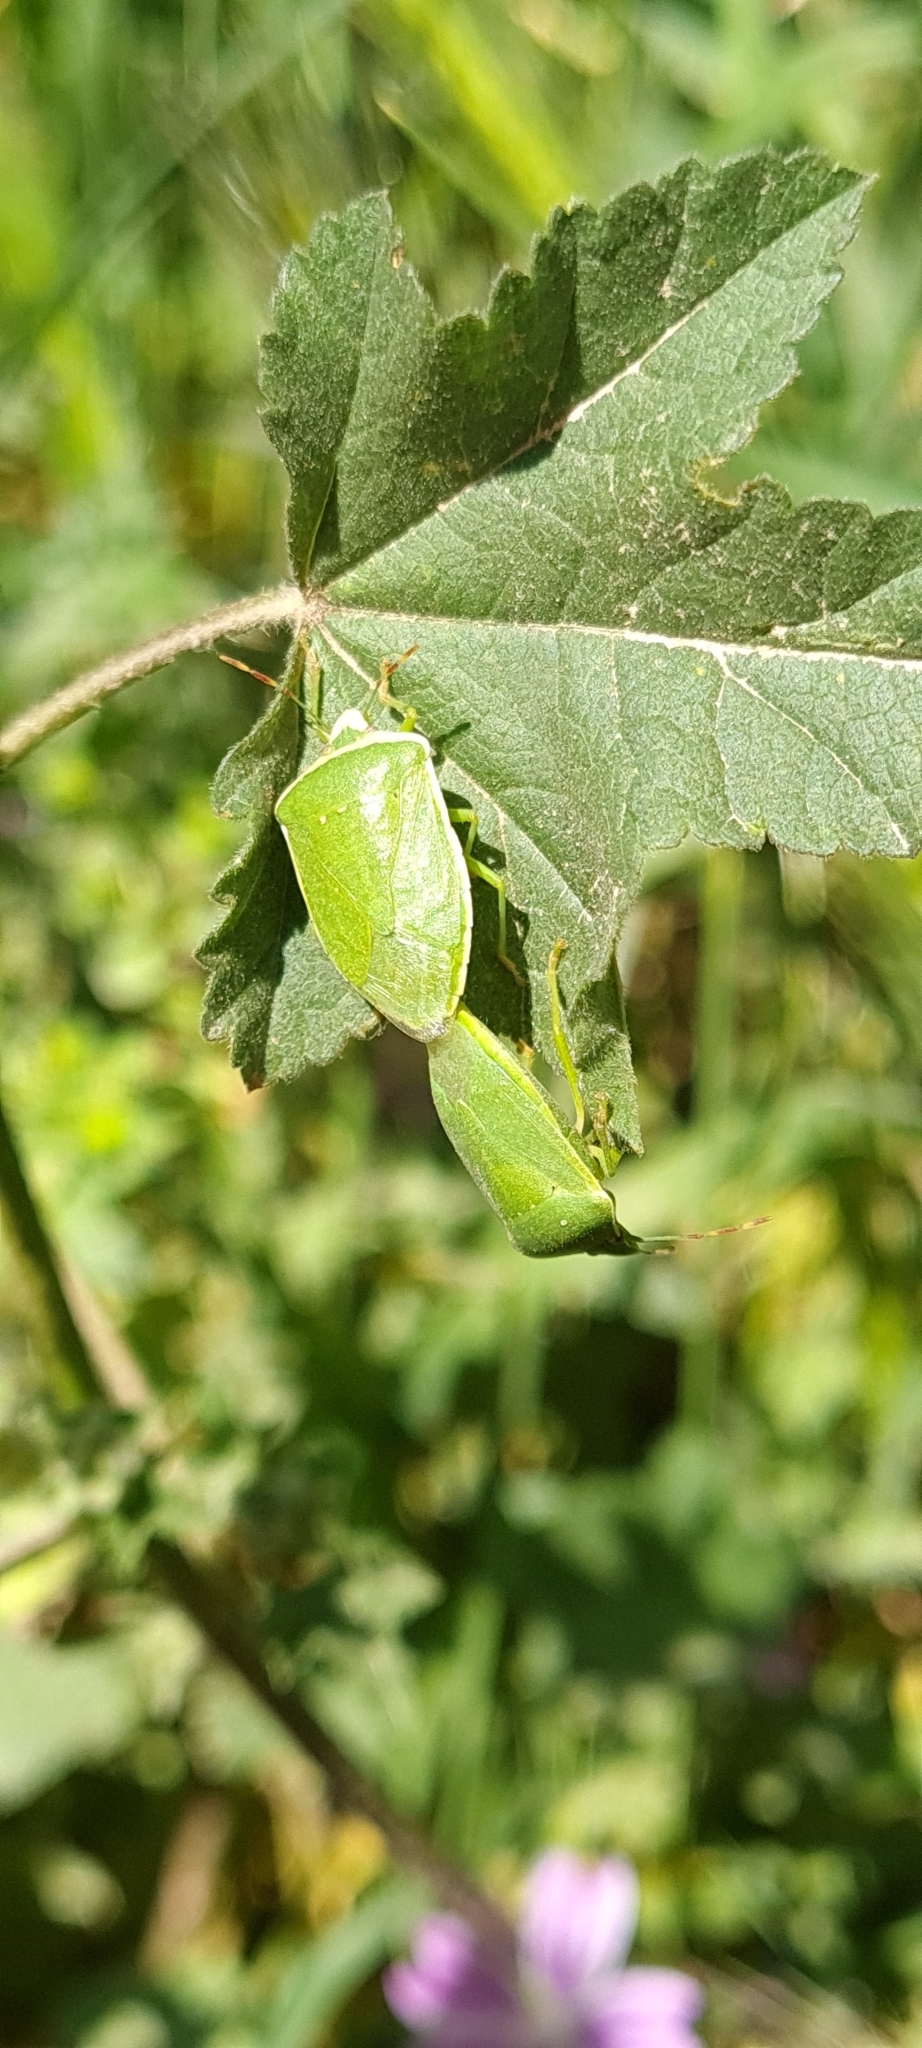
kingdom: Animalia
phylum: Arthropoda
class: Insecta
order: Hemiptera
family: Pentatomidae
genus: Nezara
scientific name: Nezara viridula
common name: Southern green stink bug
